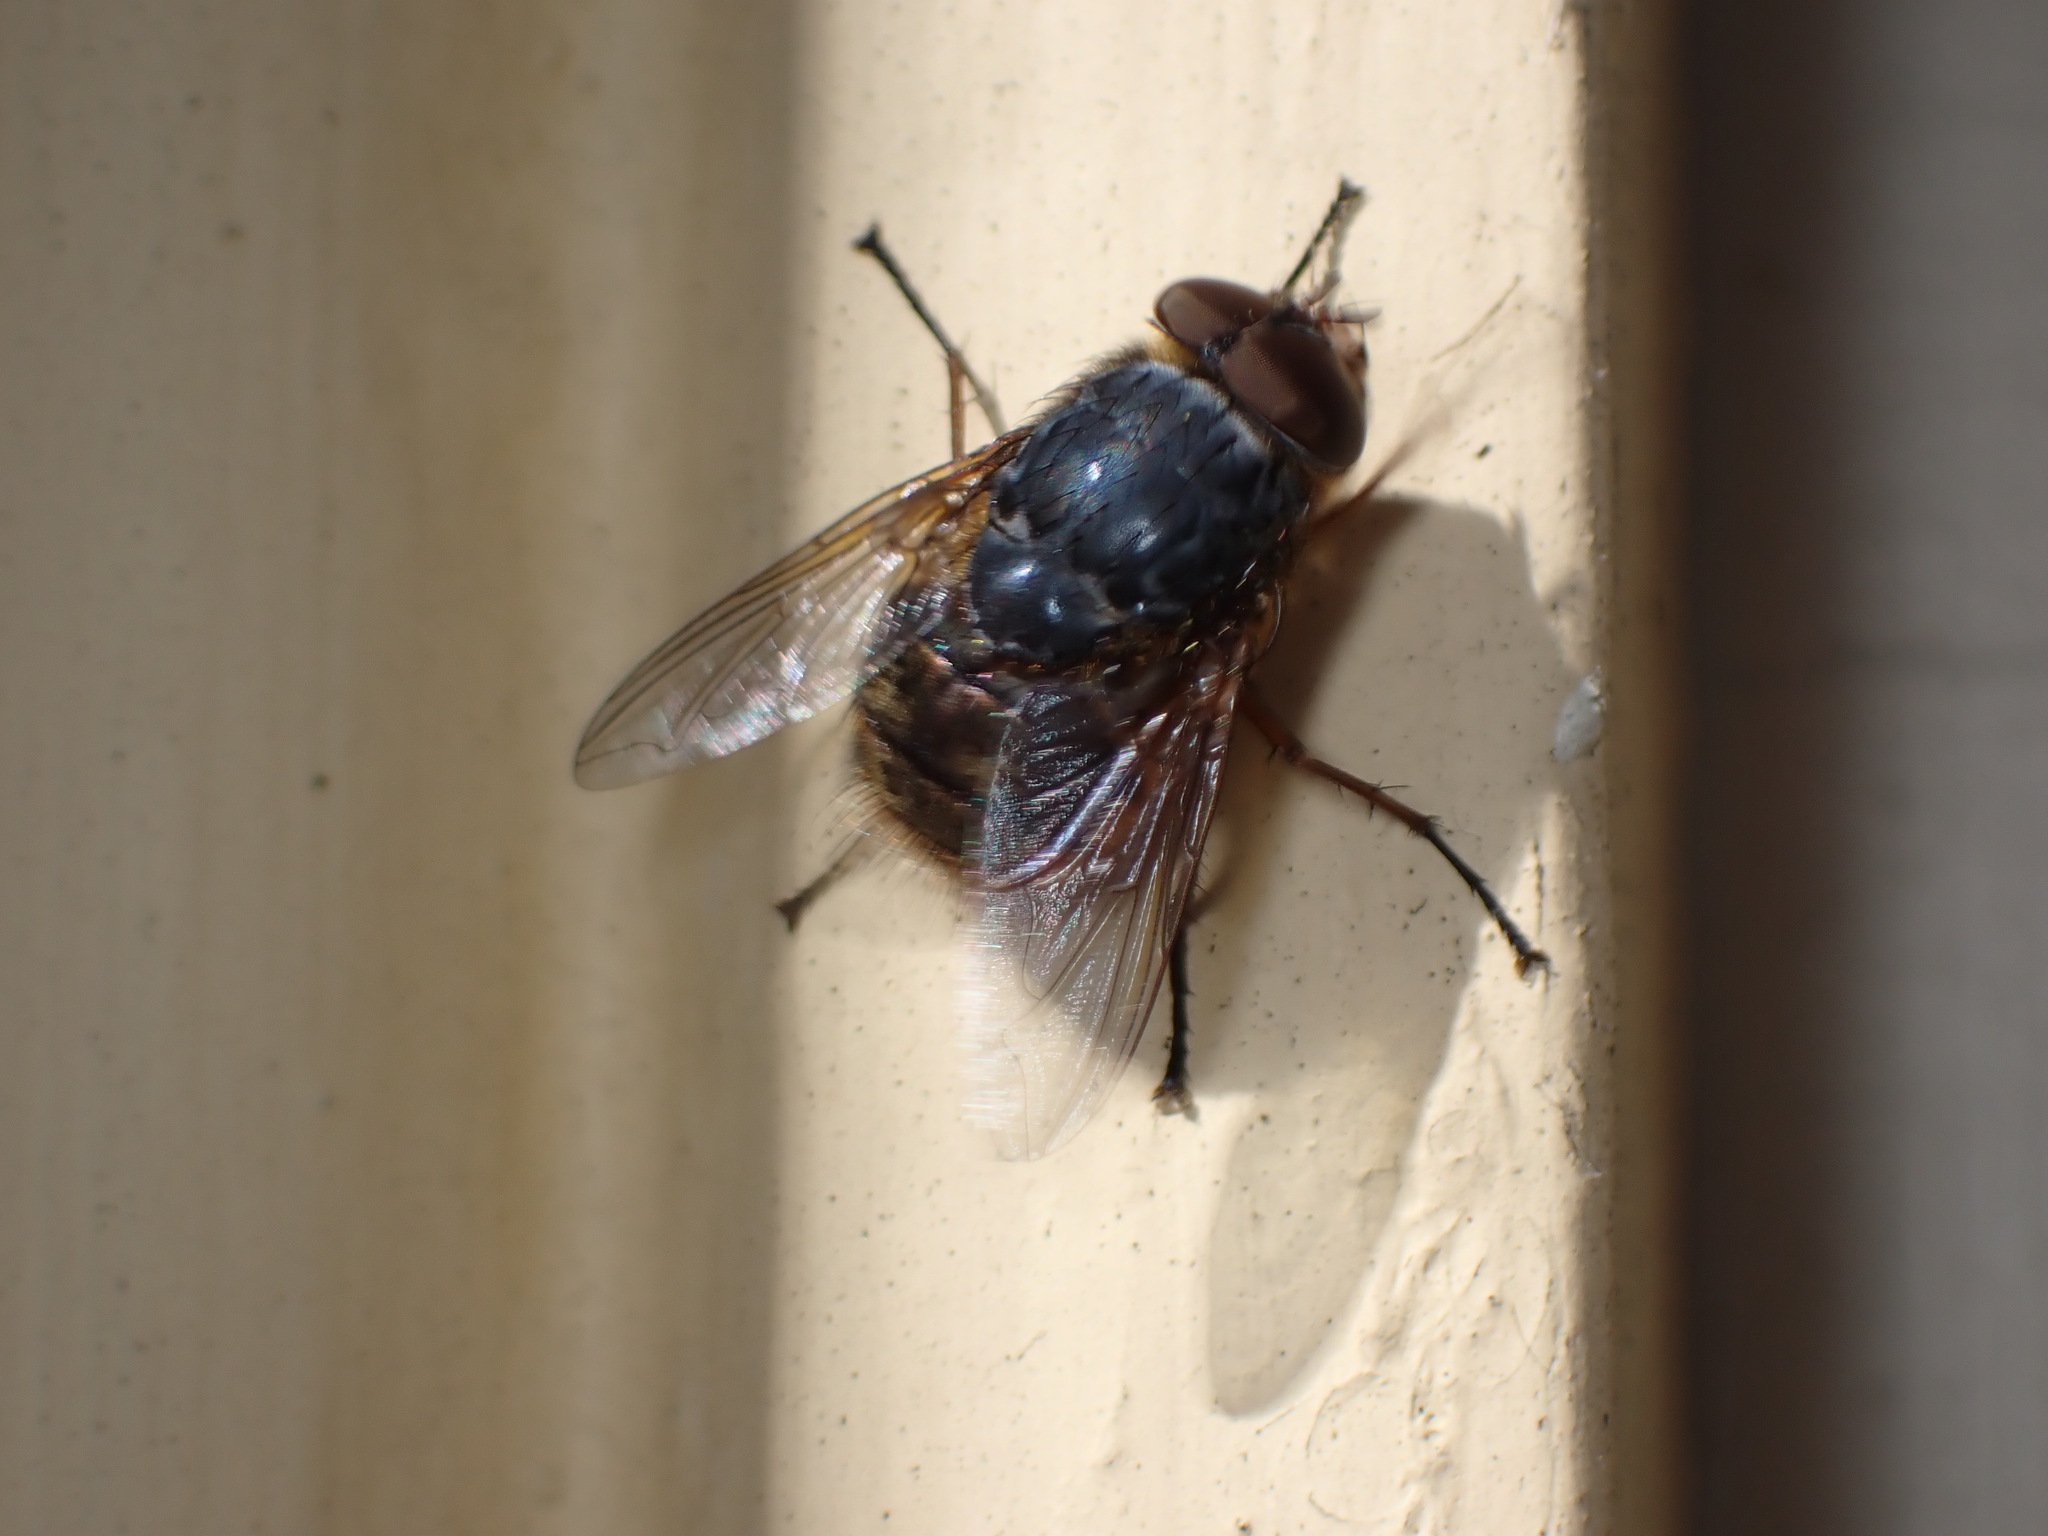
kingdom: Animalia
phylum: Arthropoda
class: Insecta
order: Diptera
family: Calliphoridae
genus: Calliphora
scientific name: Calliphora stygia
